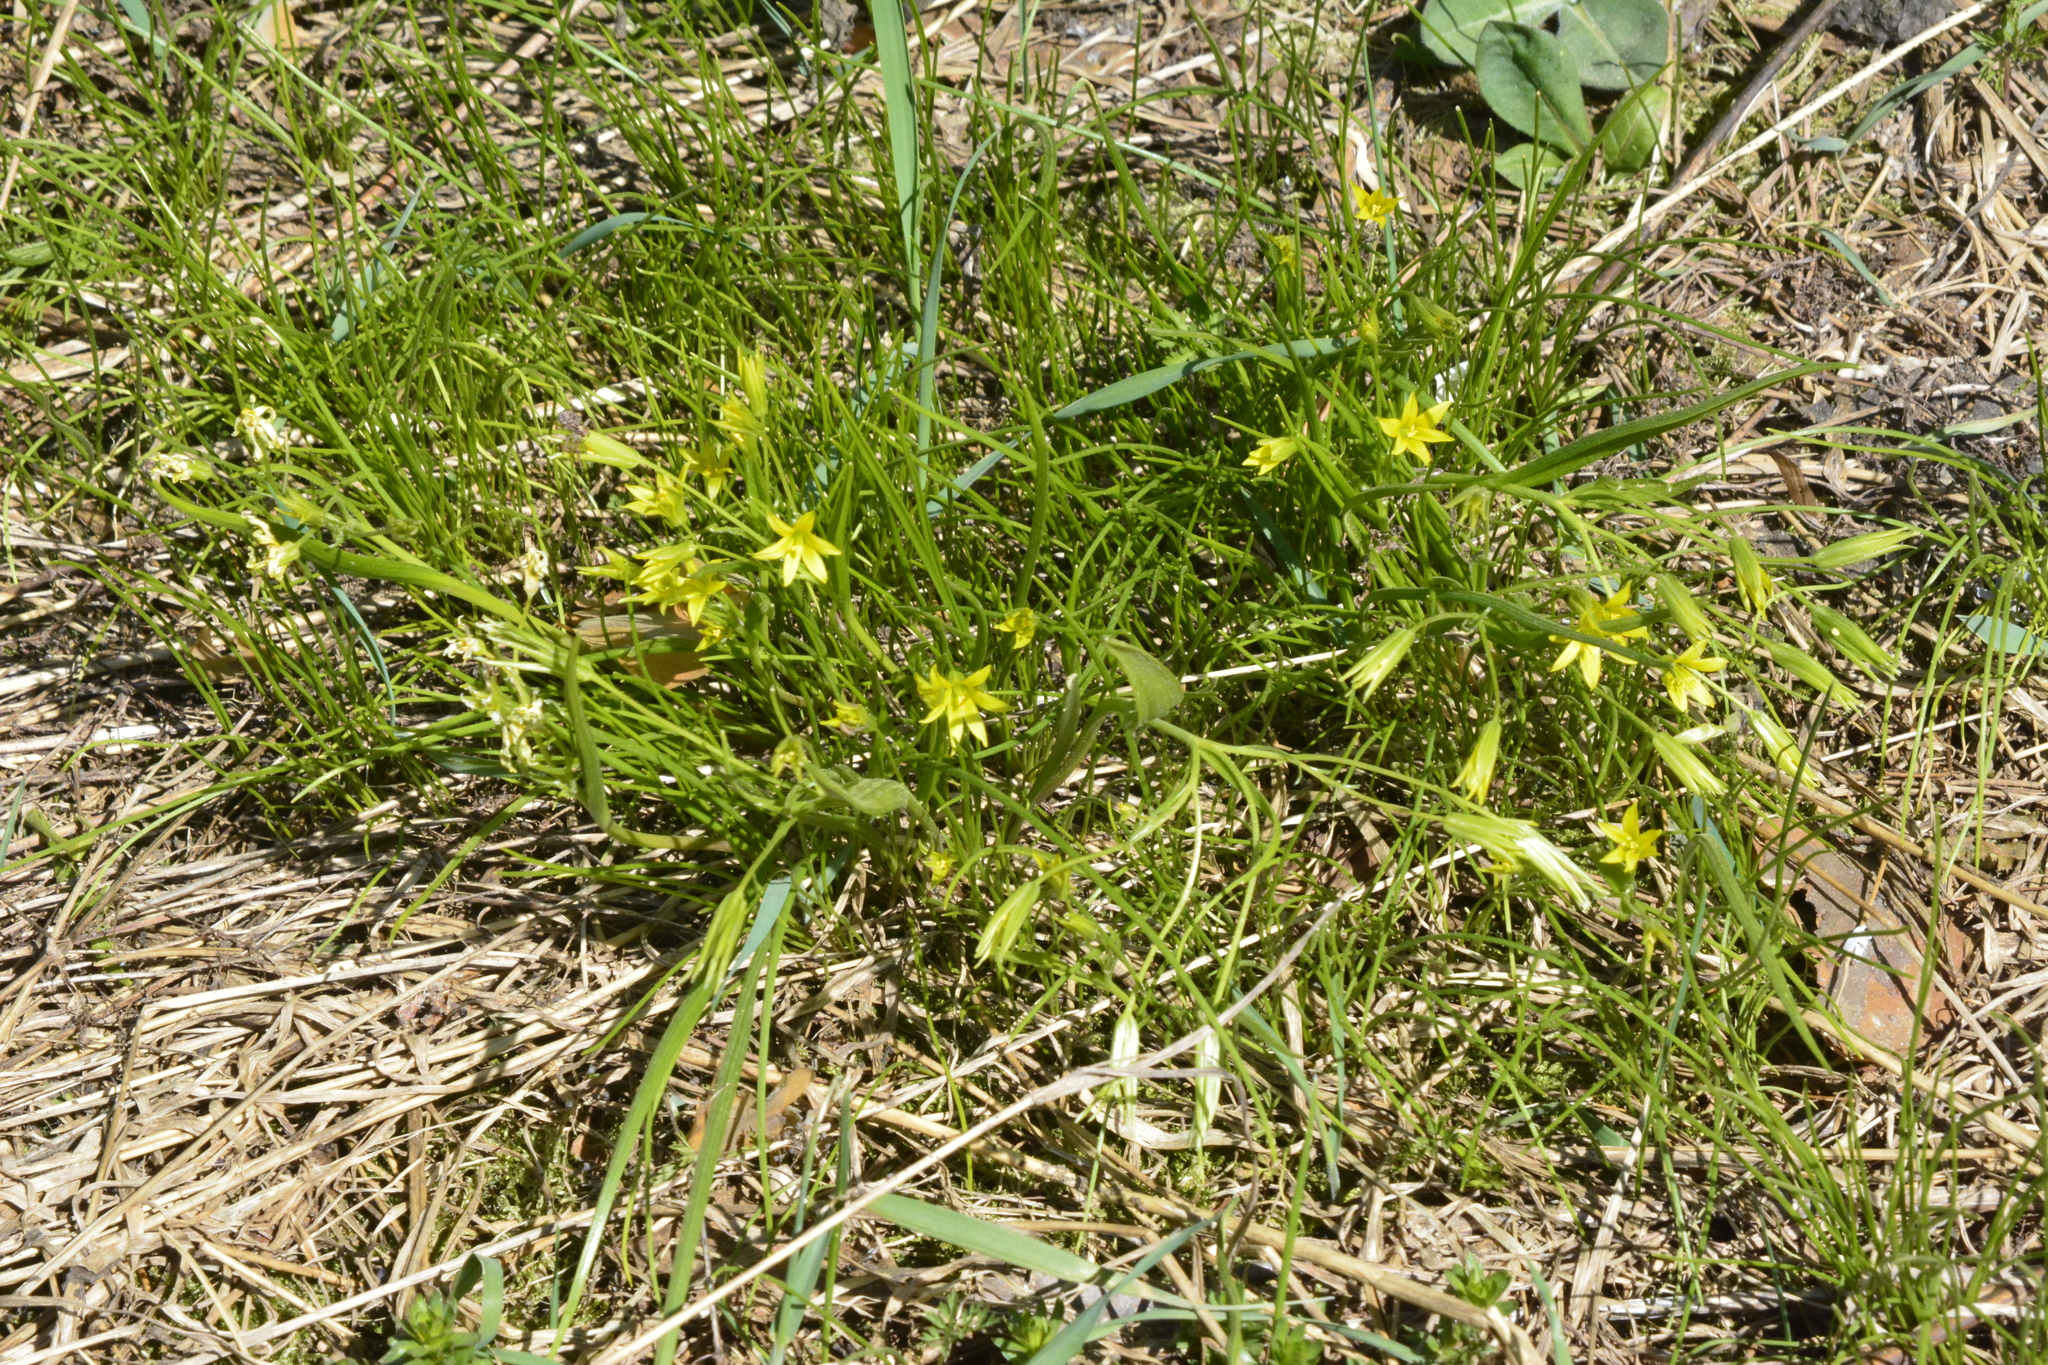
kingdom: Plantae
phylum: Tracheophyta
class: Liliopsida
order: Liliales
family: Liliaceae
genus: Gagea
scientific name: Gagea minima
